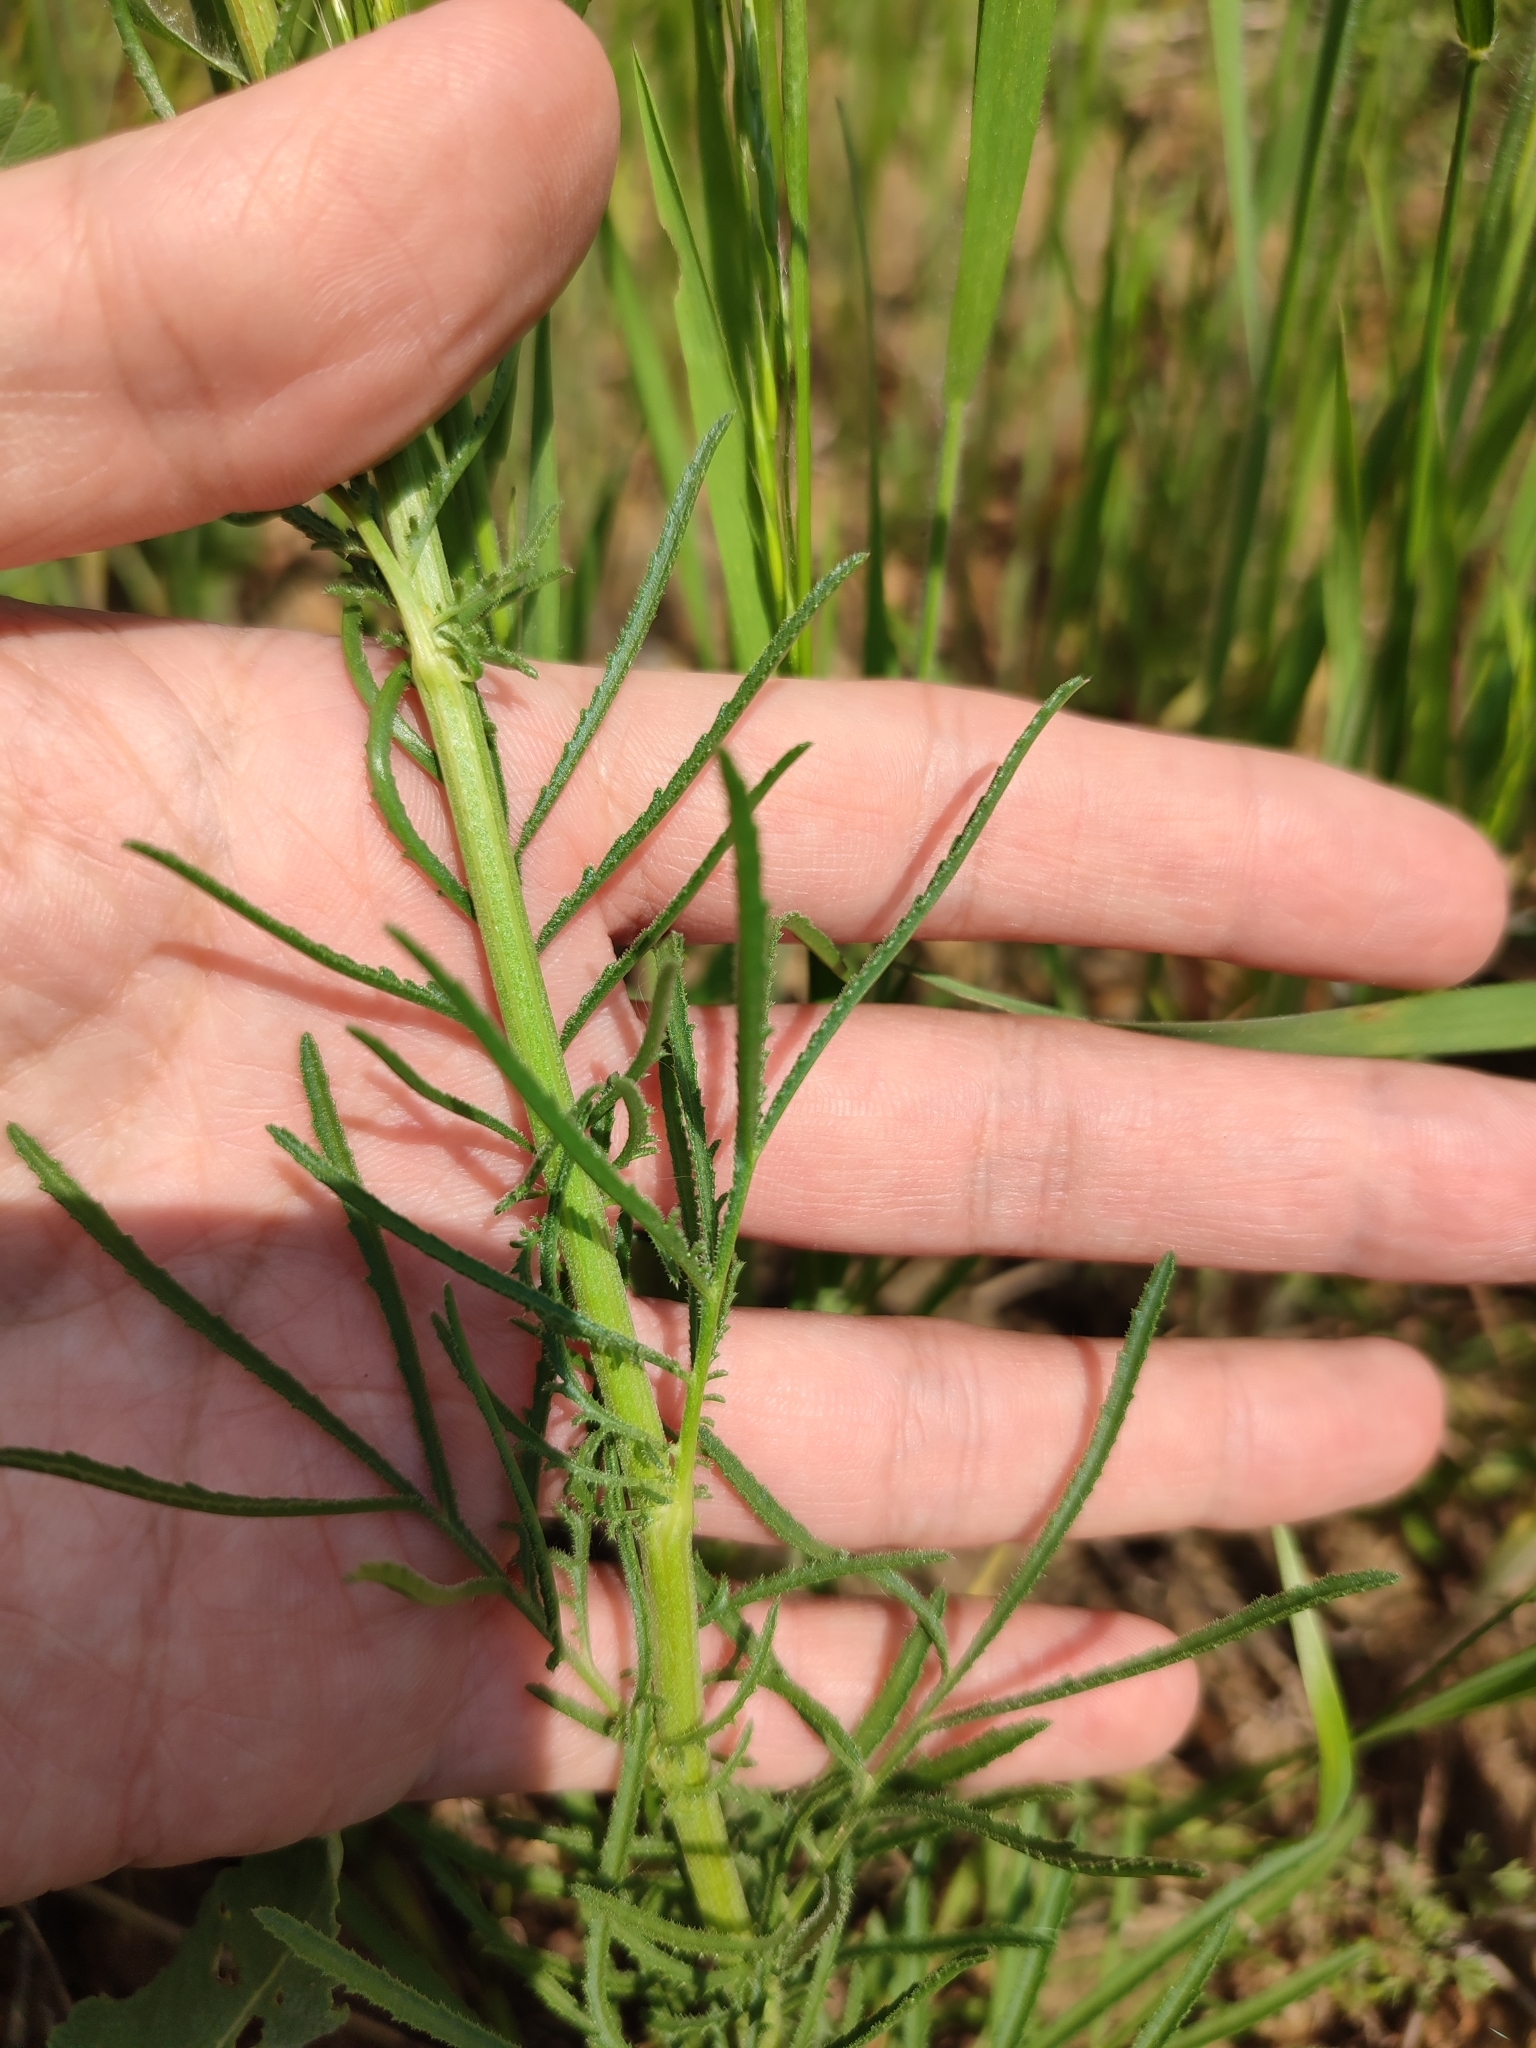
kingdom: Plantae
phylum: Tracheophyta
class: Magnoliopsida
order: Asterales
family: Asteraceae
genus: Crupina
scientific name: Crupina vulgaris
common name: Common crupina
